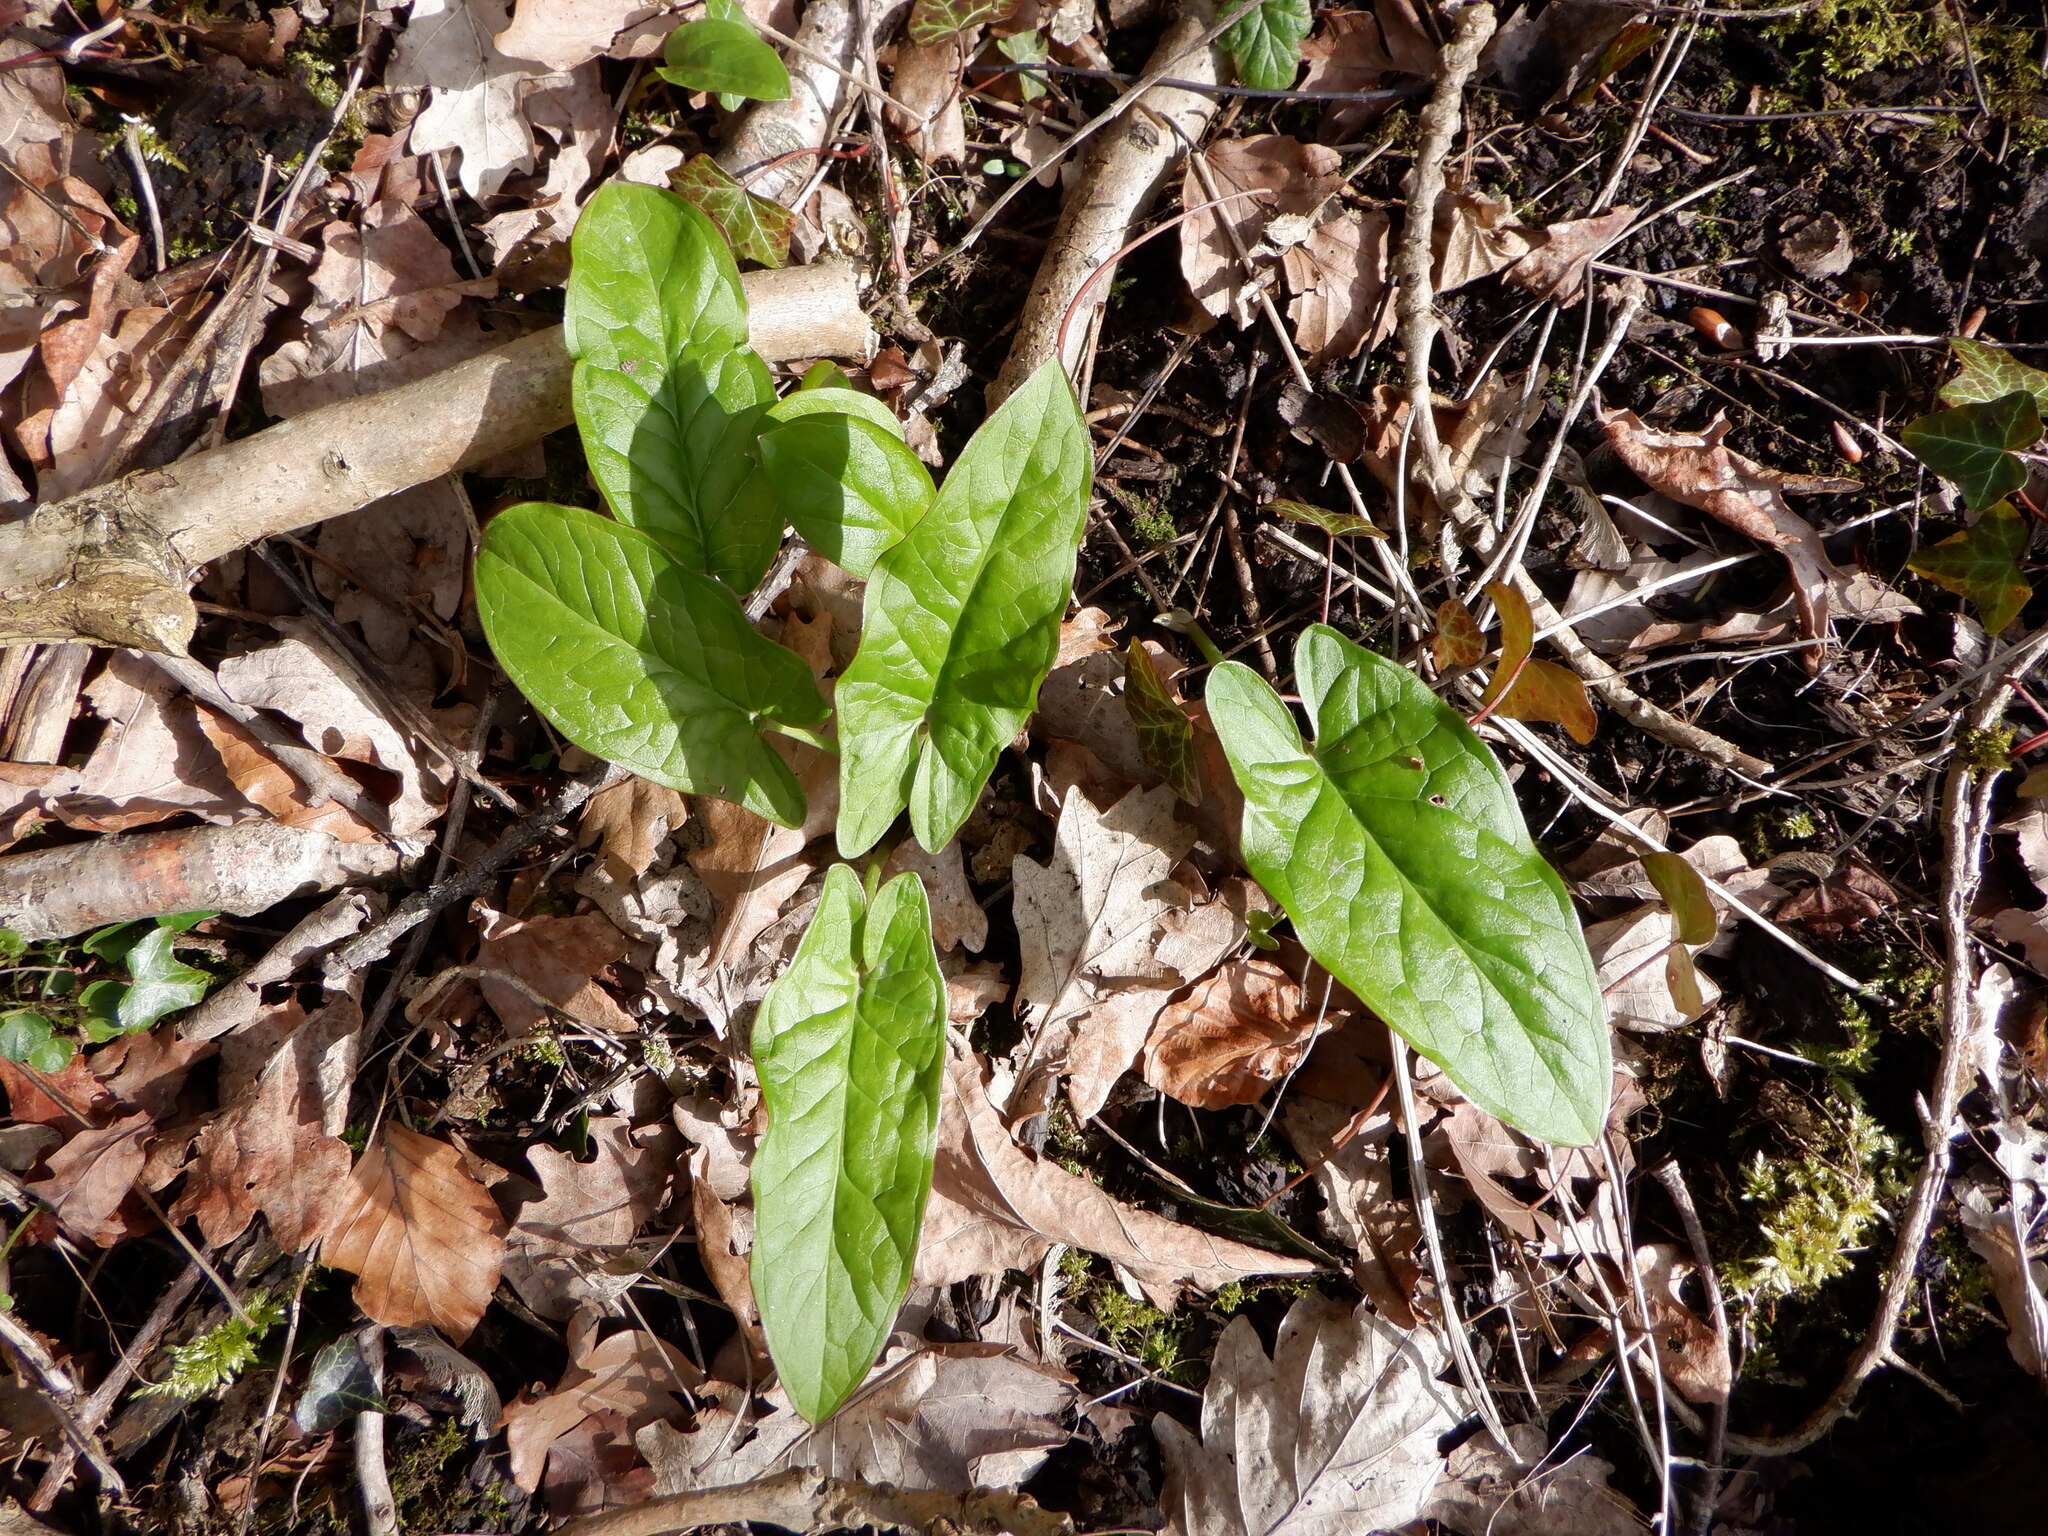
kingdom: Plantae
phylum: Tracheophyta
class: Liliopsida
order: Alismatales
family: Araceae
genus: Arum
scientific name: Arum maculatum
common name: Lords-and-ladies
